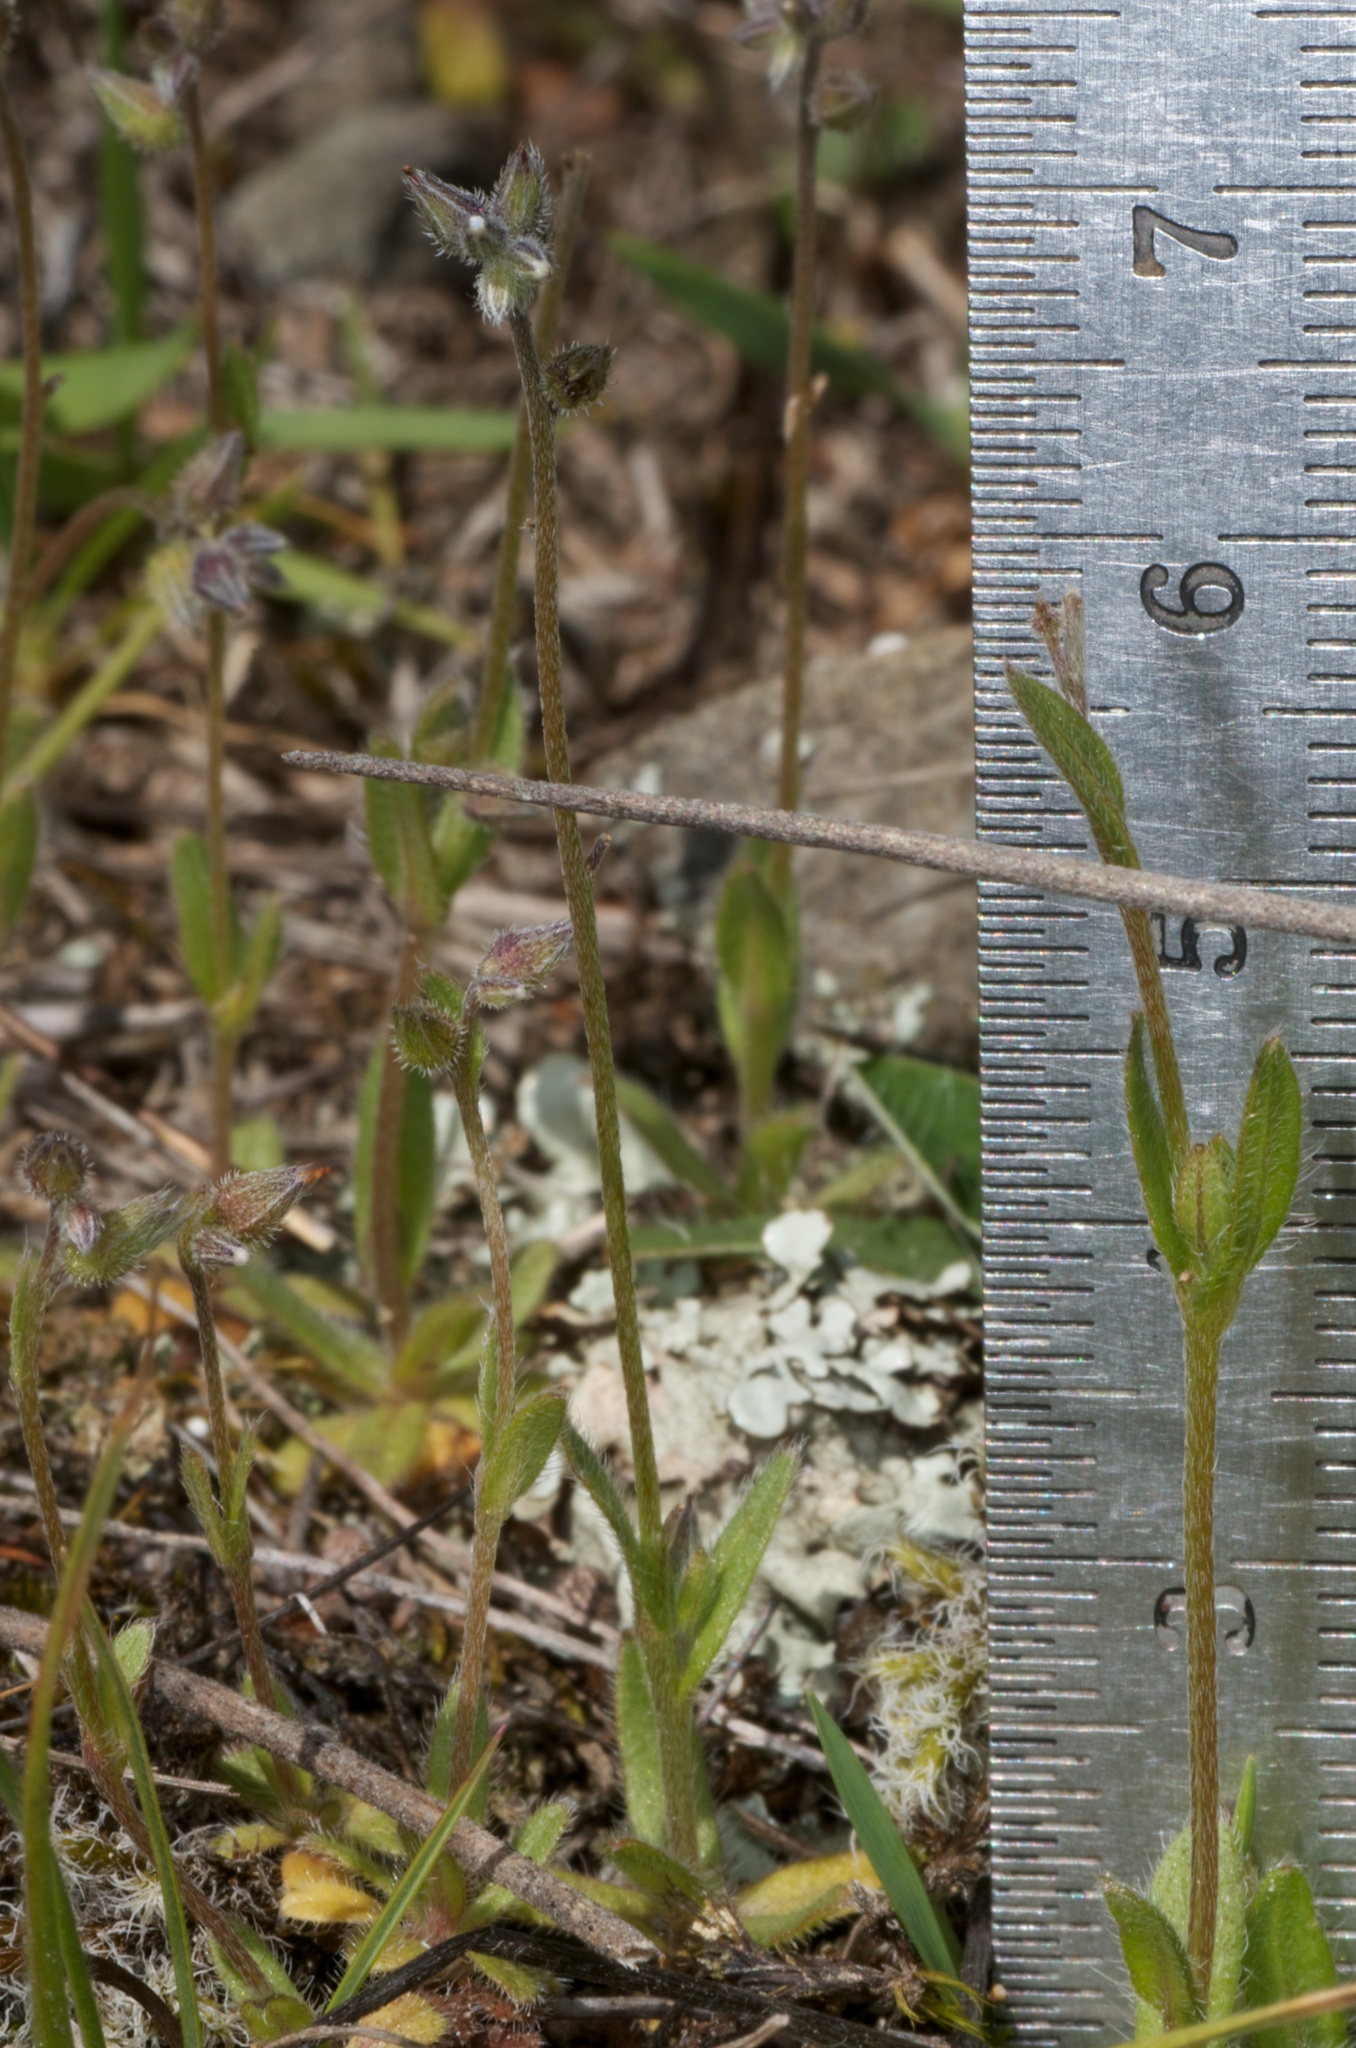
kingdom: Plantae
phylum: Tracheophyta
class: Magnoliopsida
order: Boraginales
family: Boraginaceae
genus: Myosotis
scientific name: Myosotis discolor
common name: Changing forget-me-not
